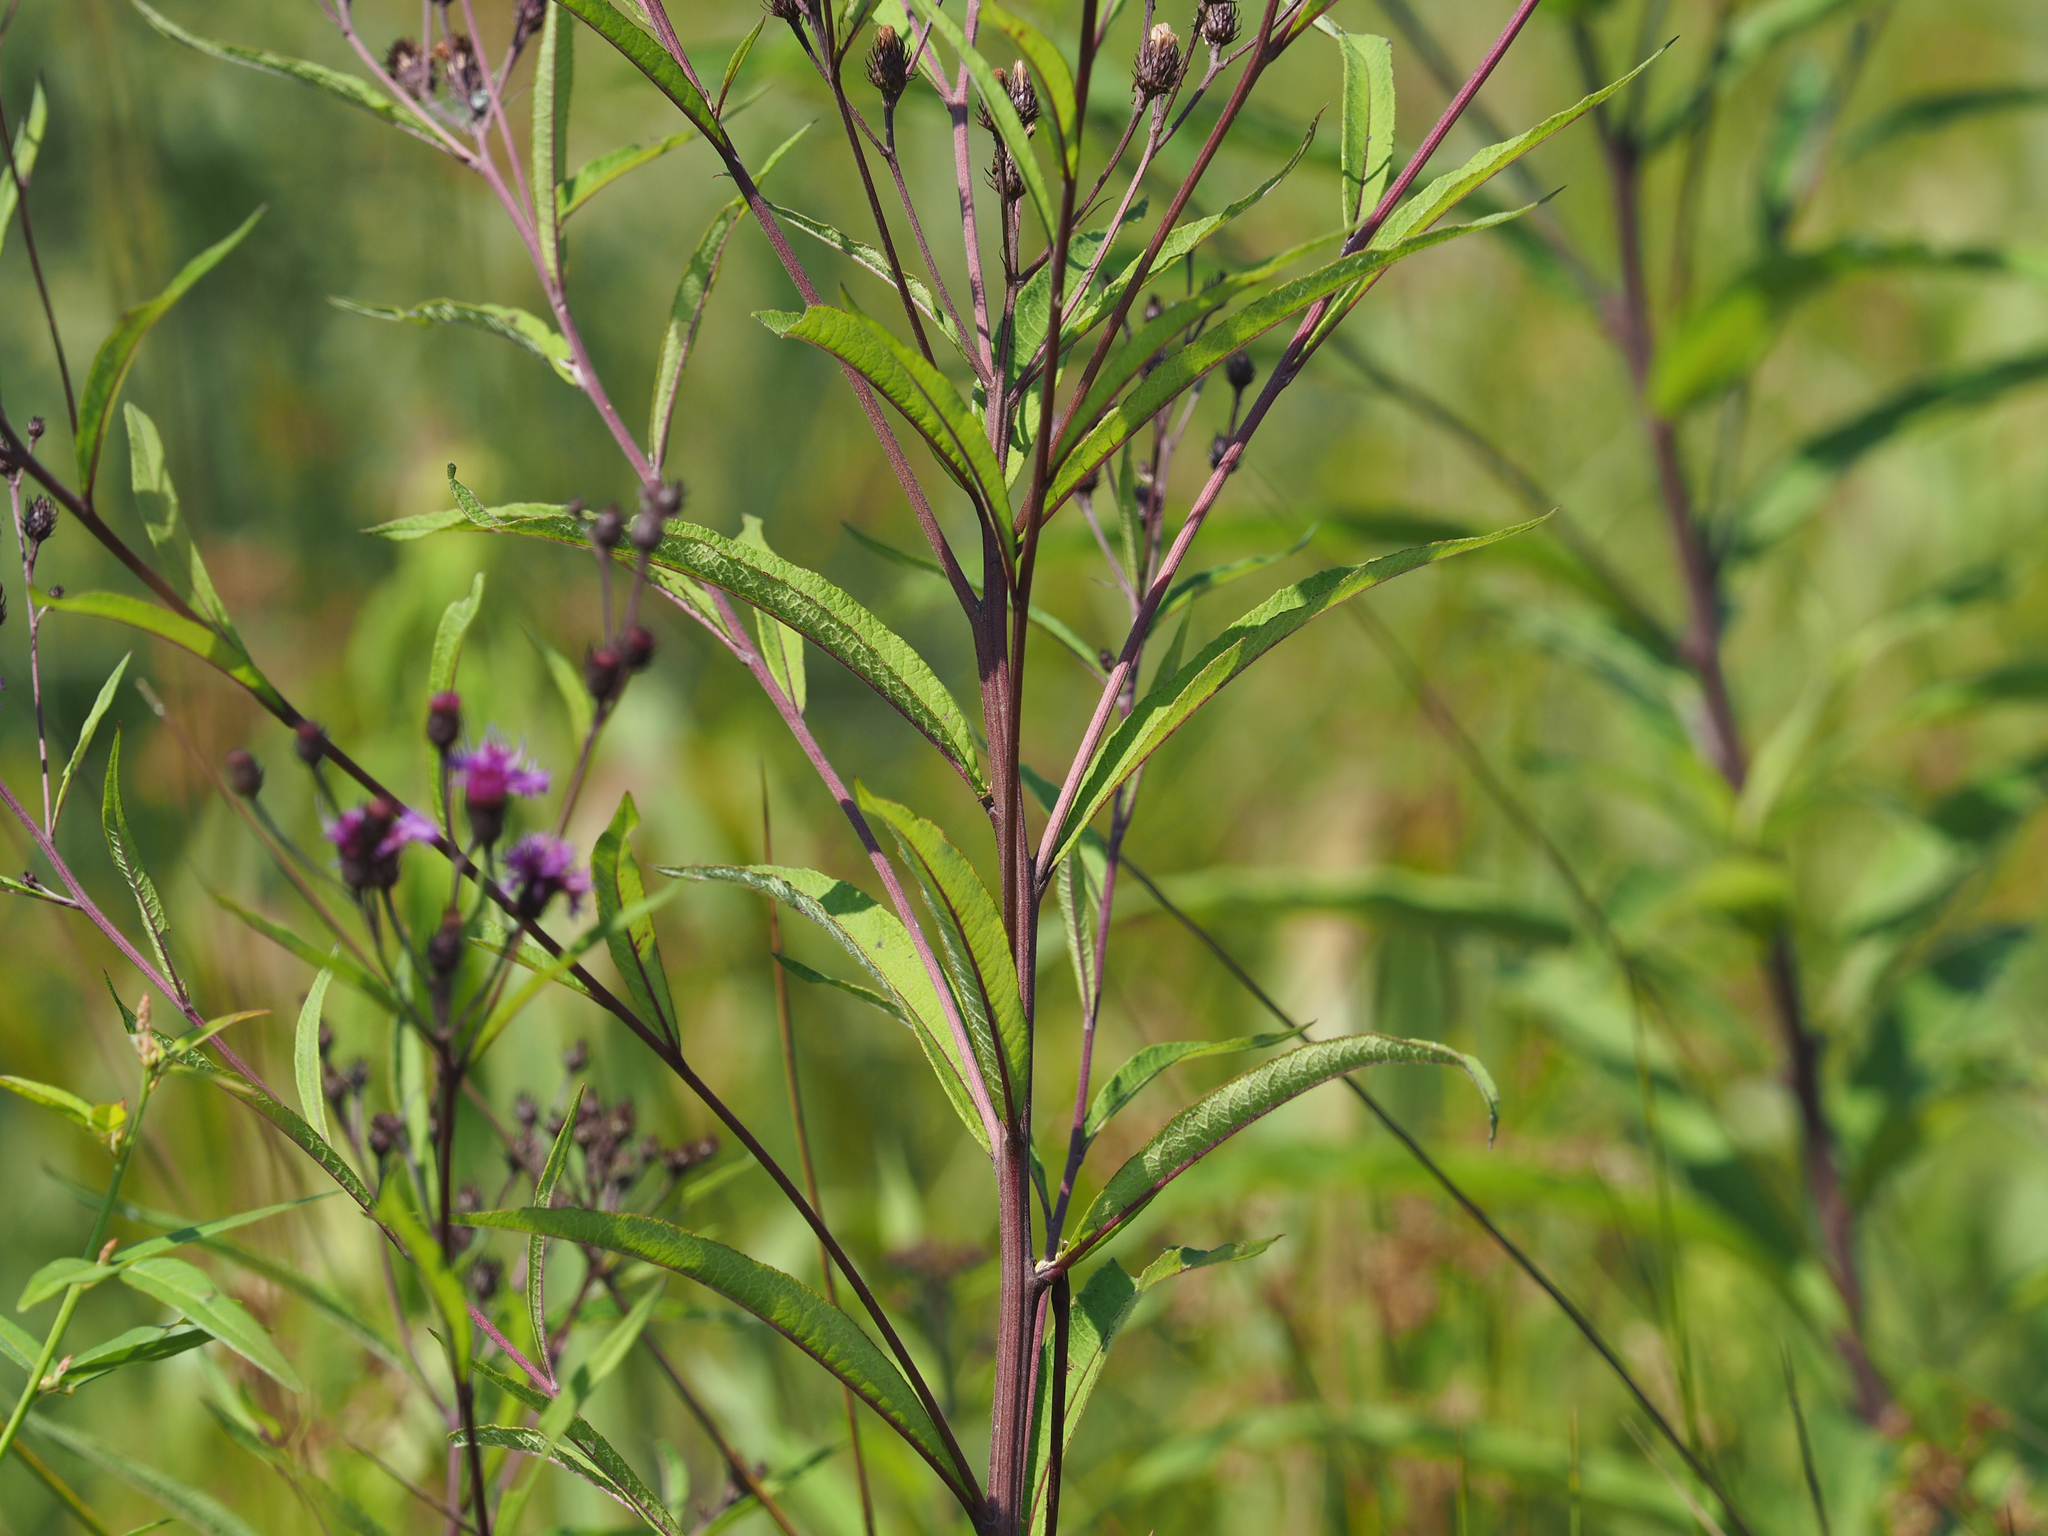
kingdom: Plantae
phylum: Tracheophyta
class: Magnoliopsida
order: Asterales
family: Asteraceae
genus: Vernonia
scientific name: Vernonia noveboracensis
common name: New york ironweed
